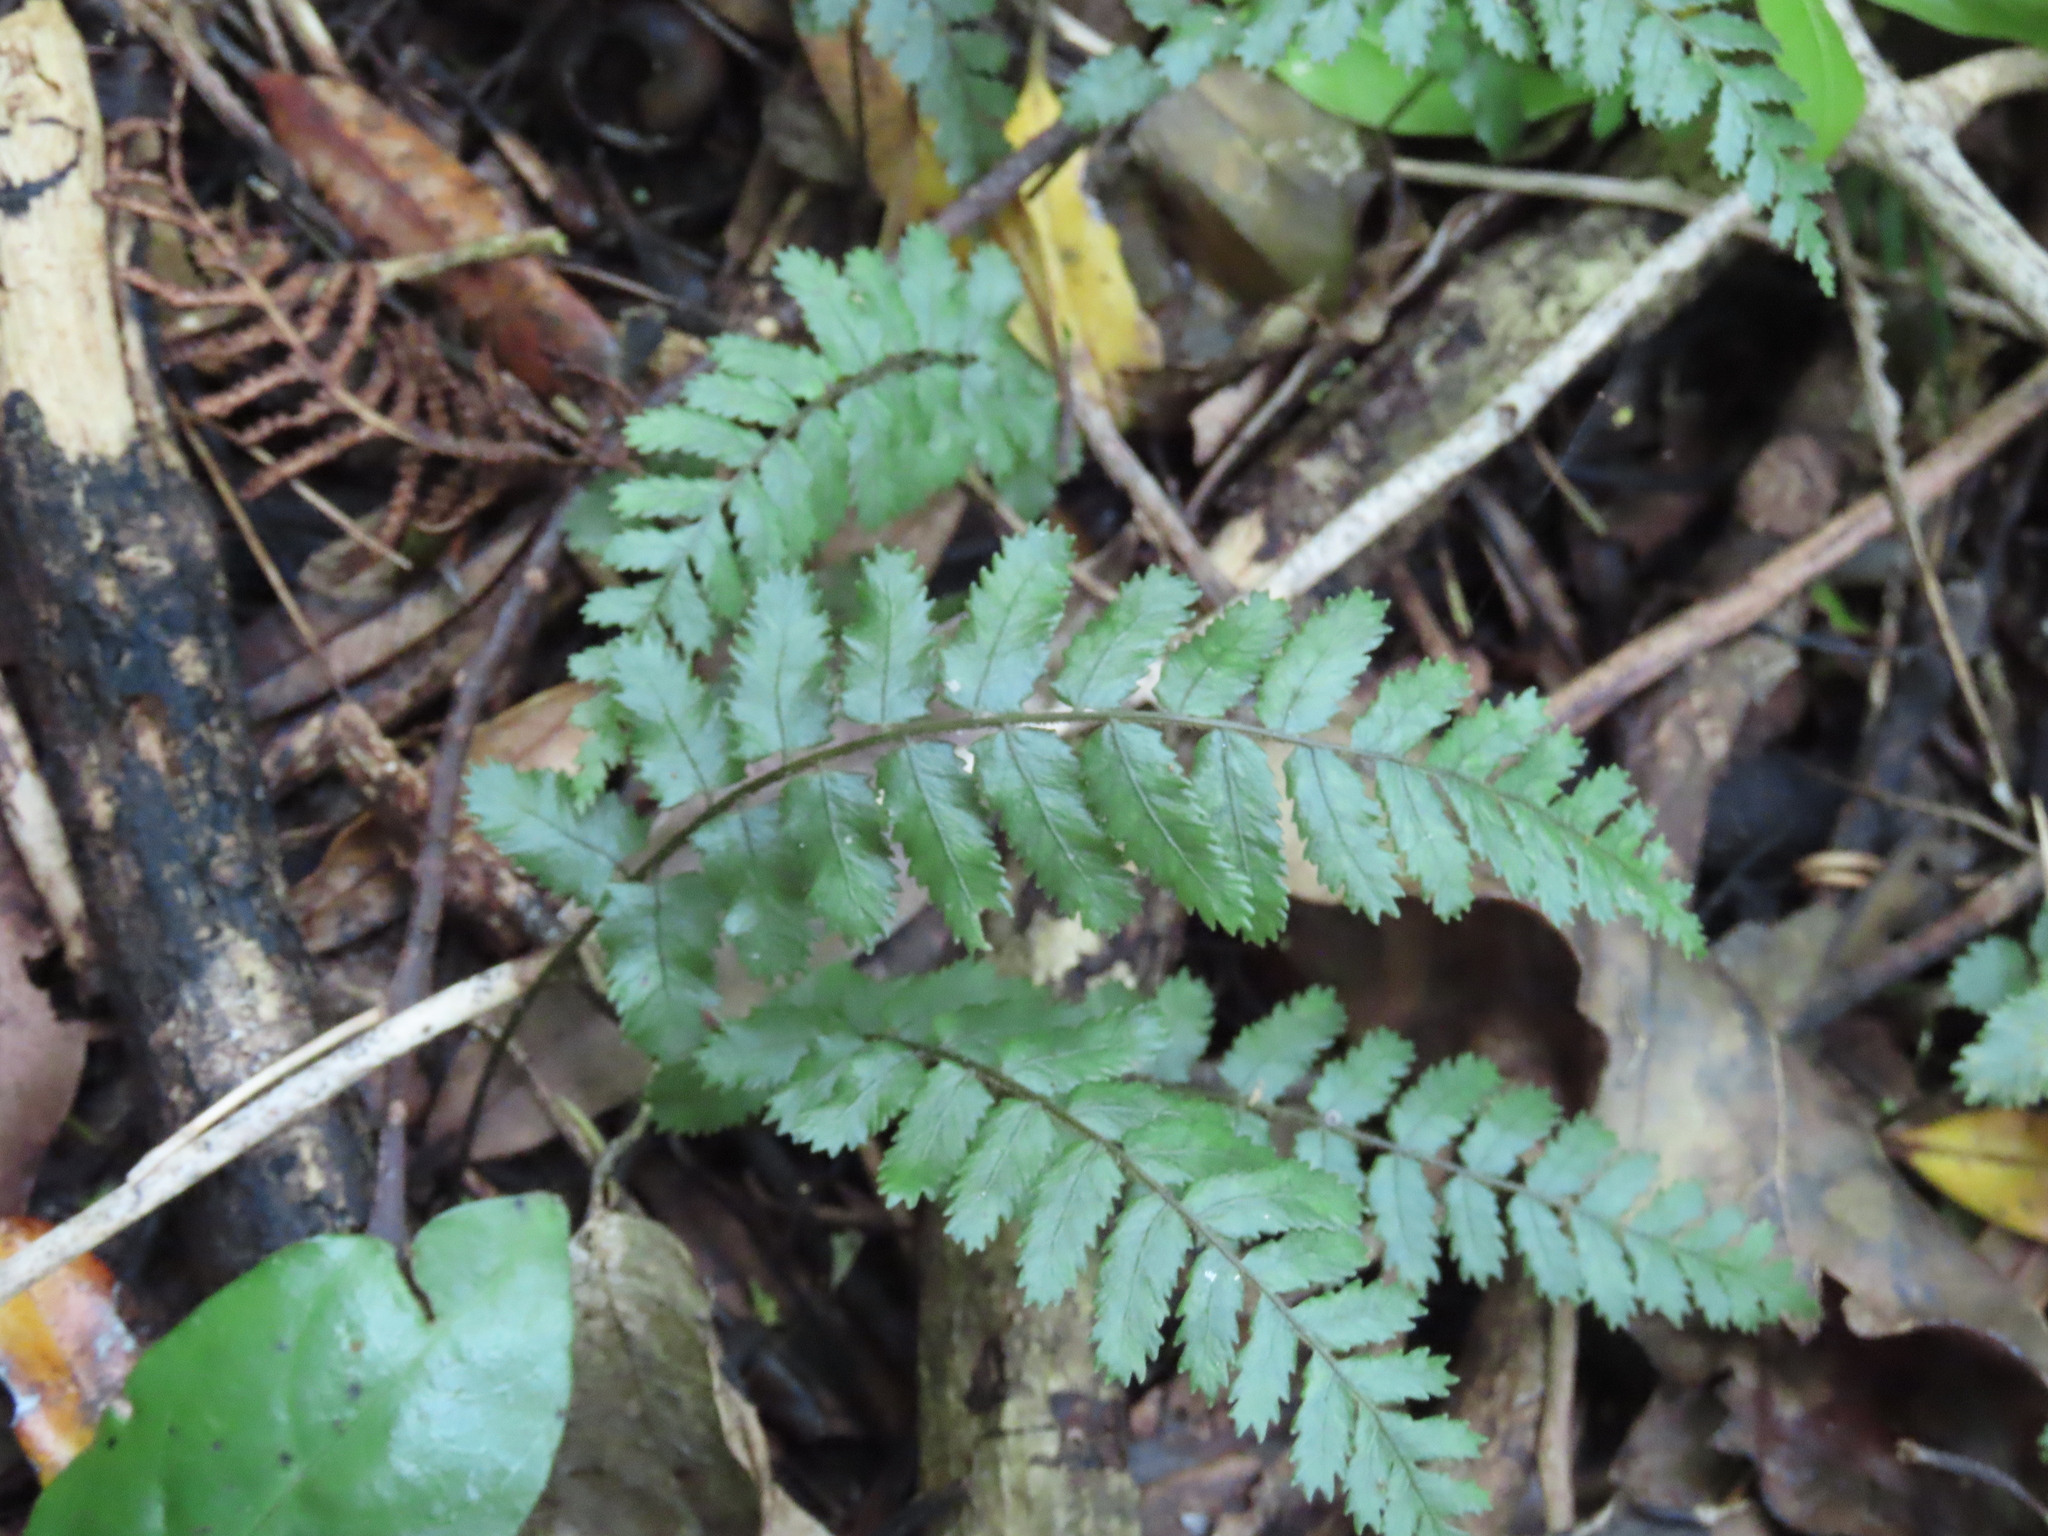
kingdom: Plantae
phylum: Tracheophyta
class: Polypodiopsida
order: Polypodiales
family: Blechnaceae
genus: Icarus
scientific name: Icarus filiformis
